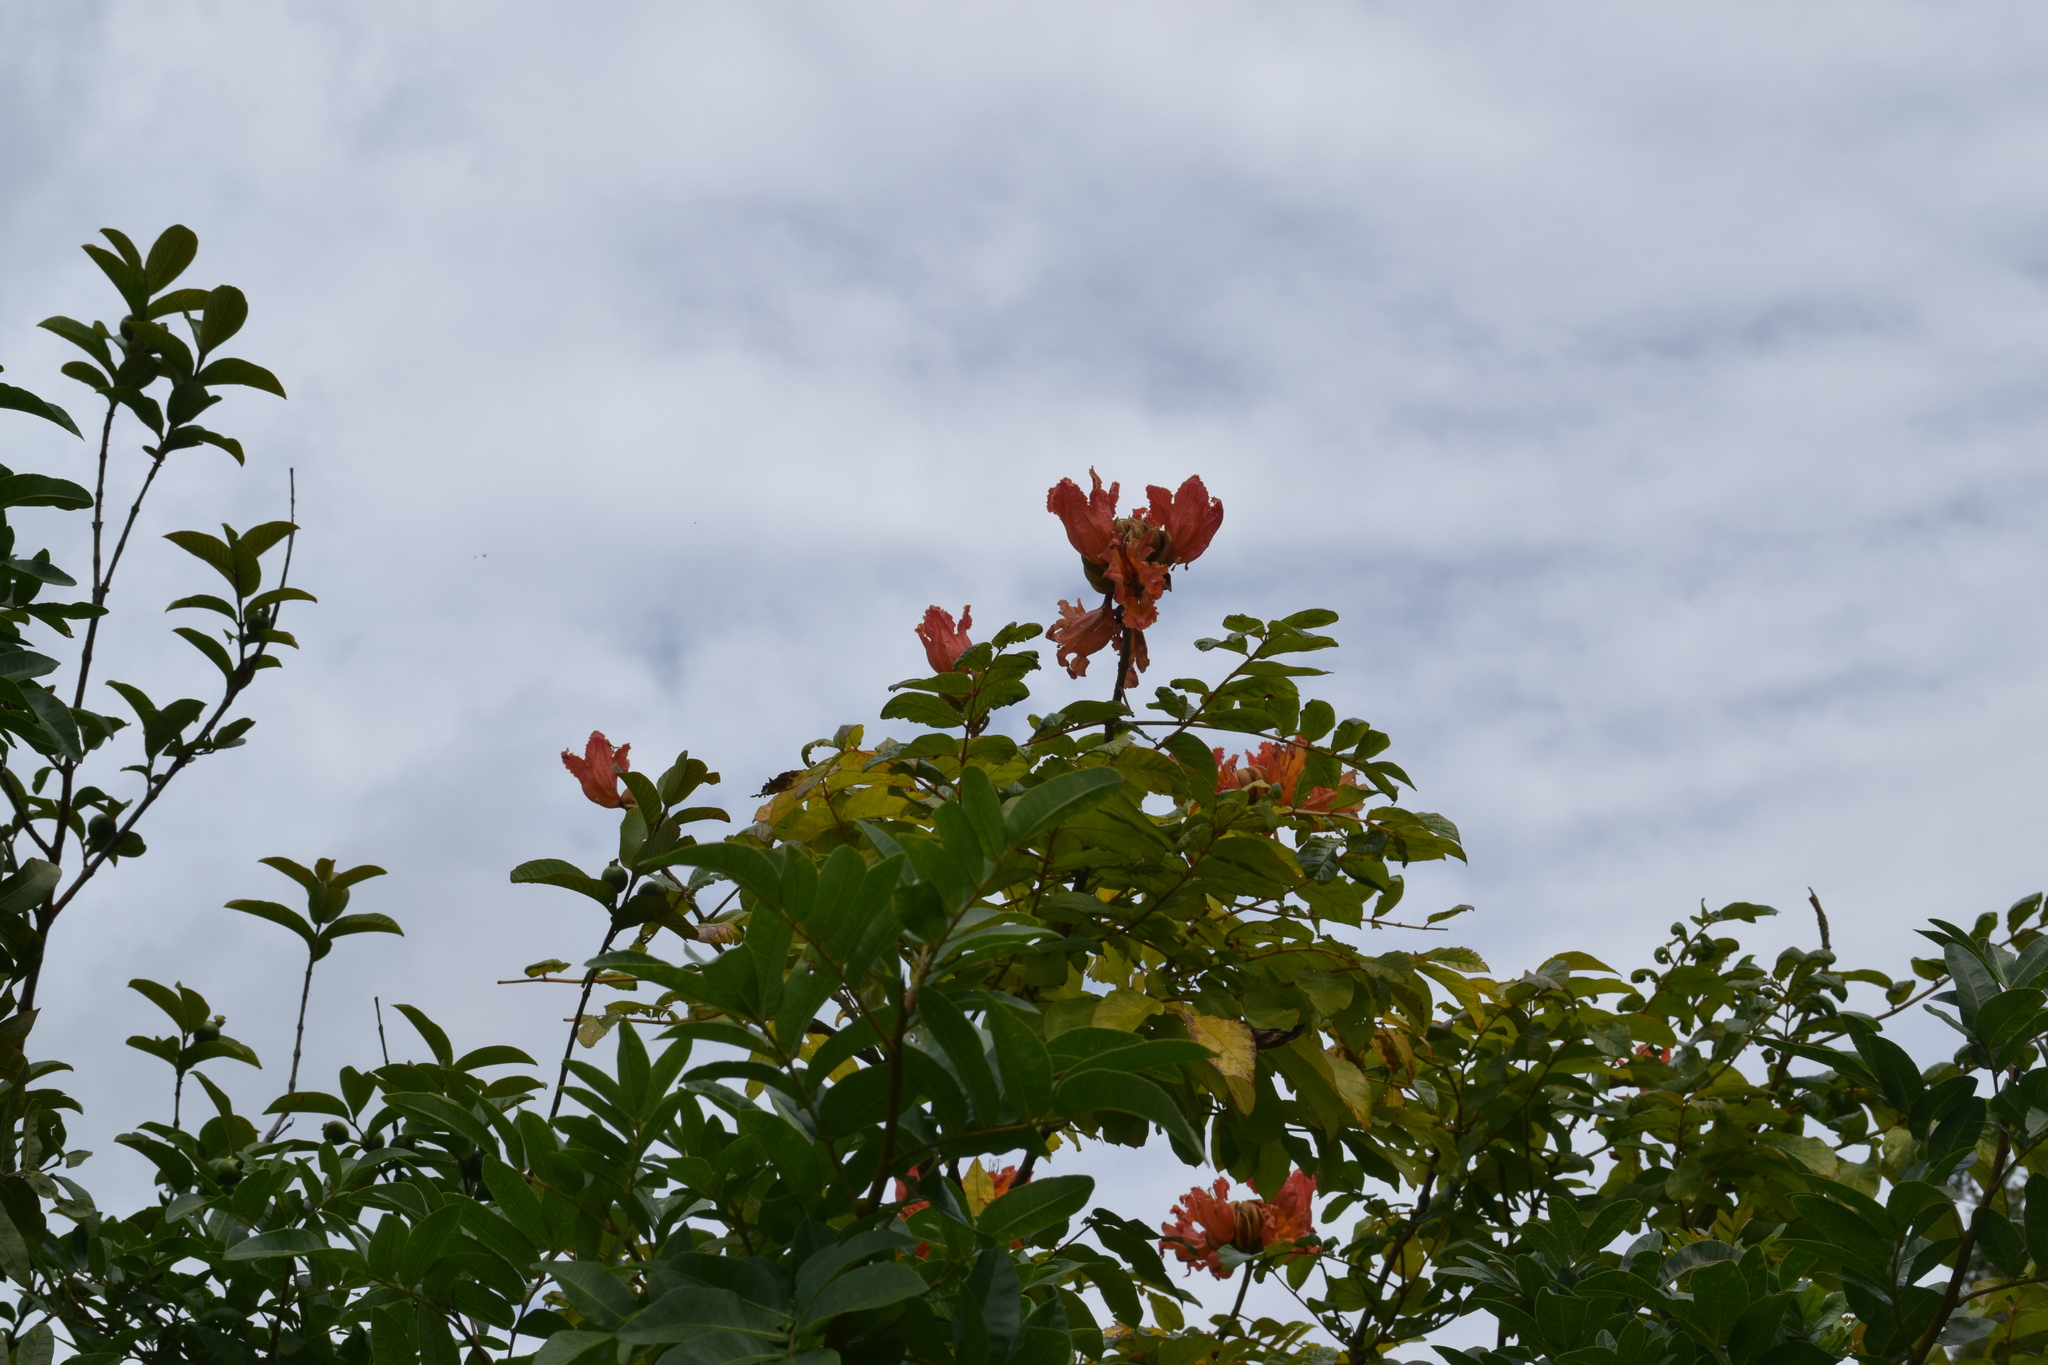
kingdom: Plantae
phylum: Tracheophyta
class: Magnoliopsida
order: Lamiales
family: Bignoniaceae
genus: Spathodea
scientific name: Spathodea campanulata
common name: African tuliptree
